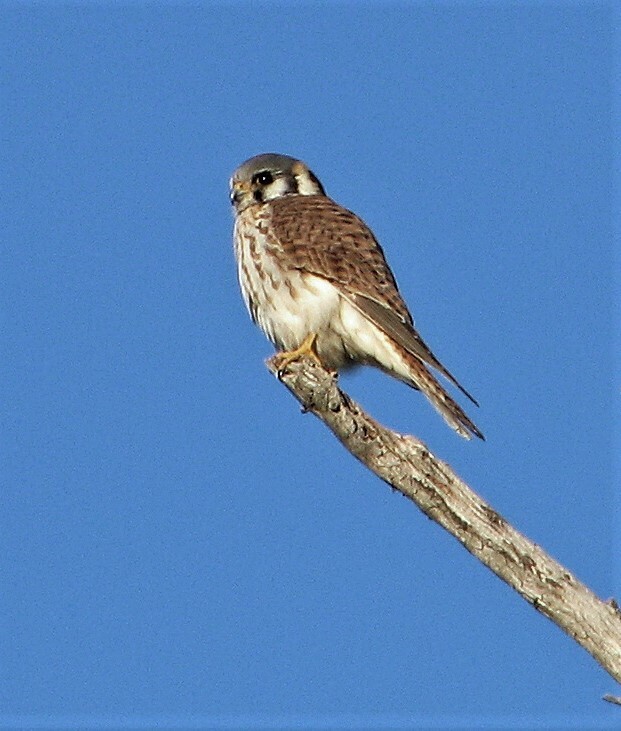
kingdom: Animalia
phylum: Chordata
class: Aves
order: Falconiformes
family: Falconidae
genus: Falco
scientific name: Falco sparverius
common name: American kestrel
